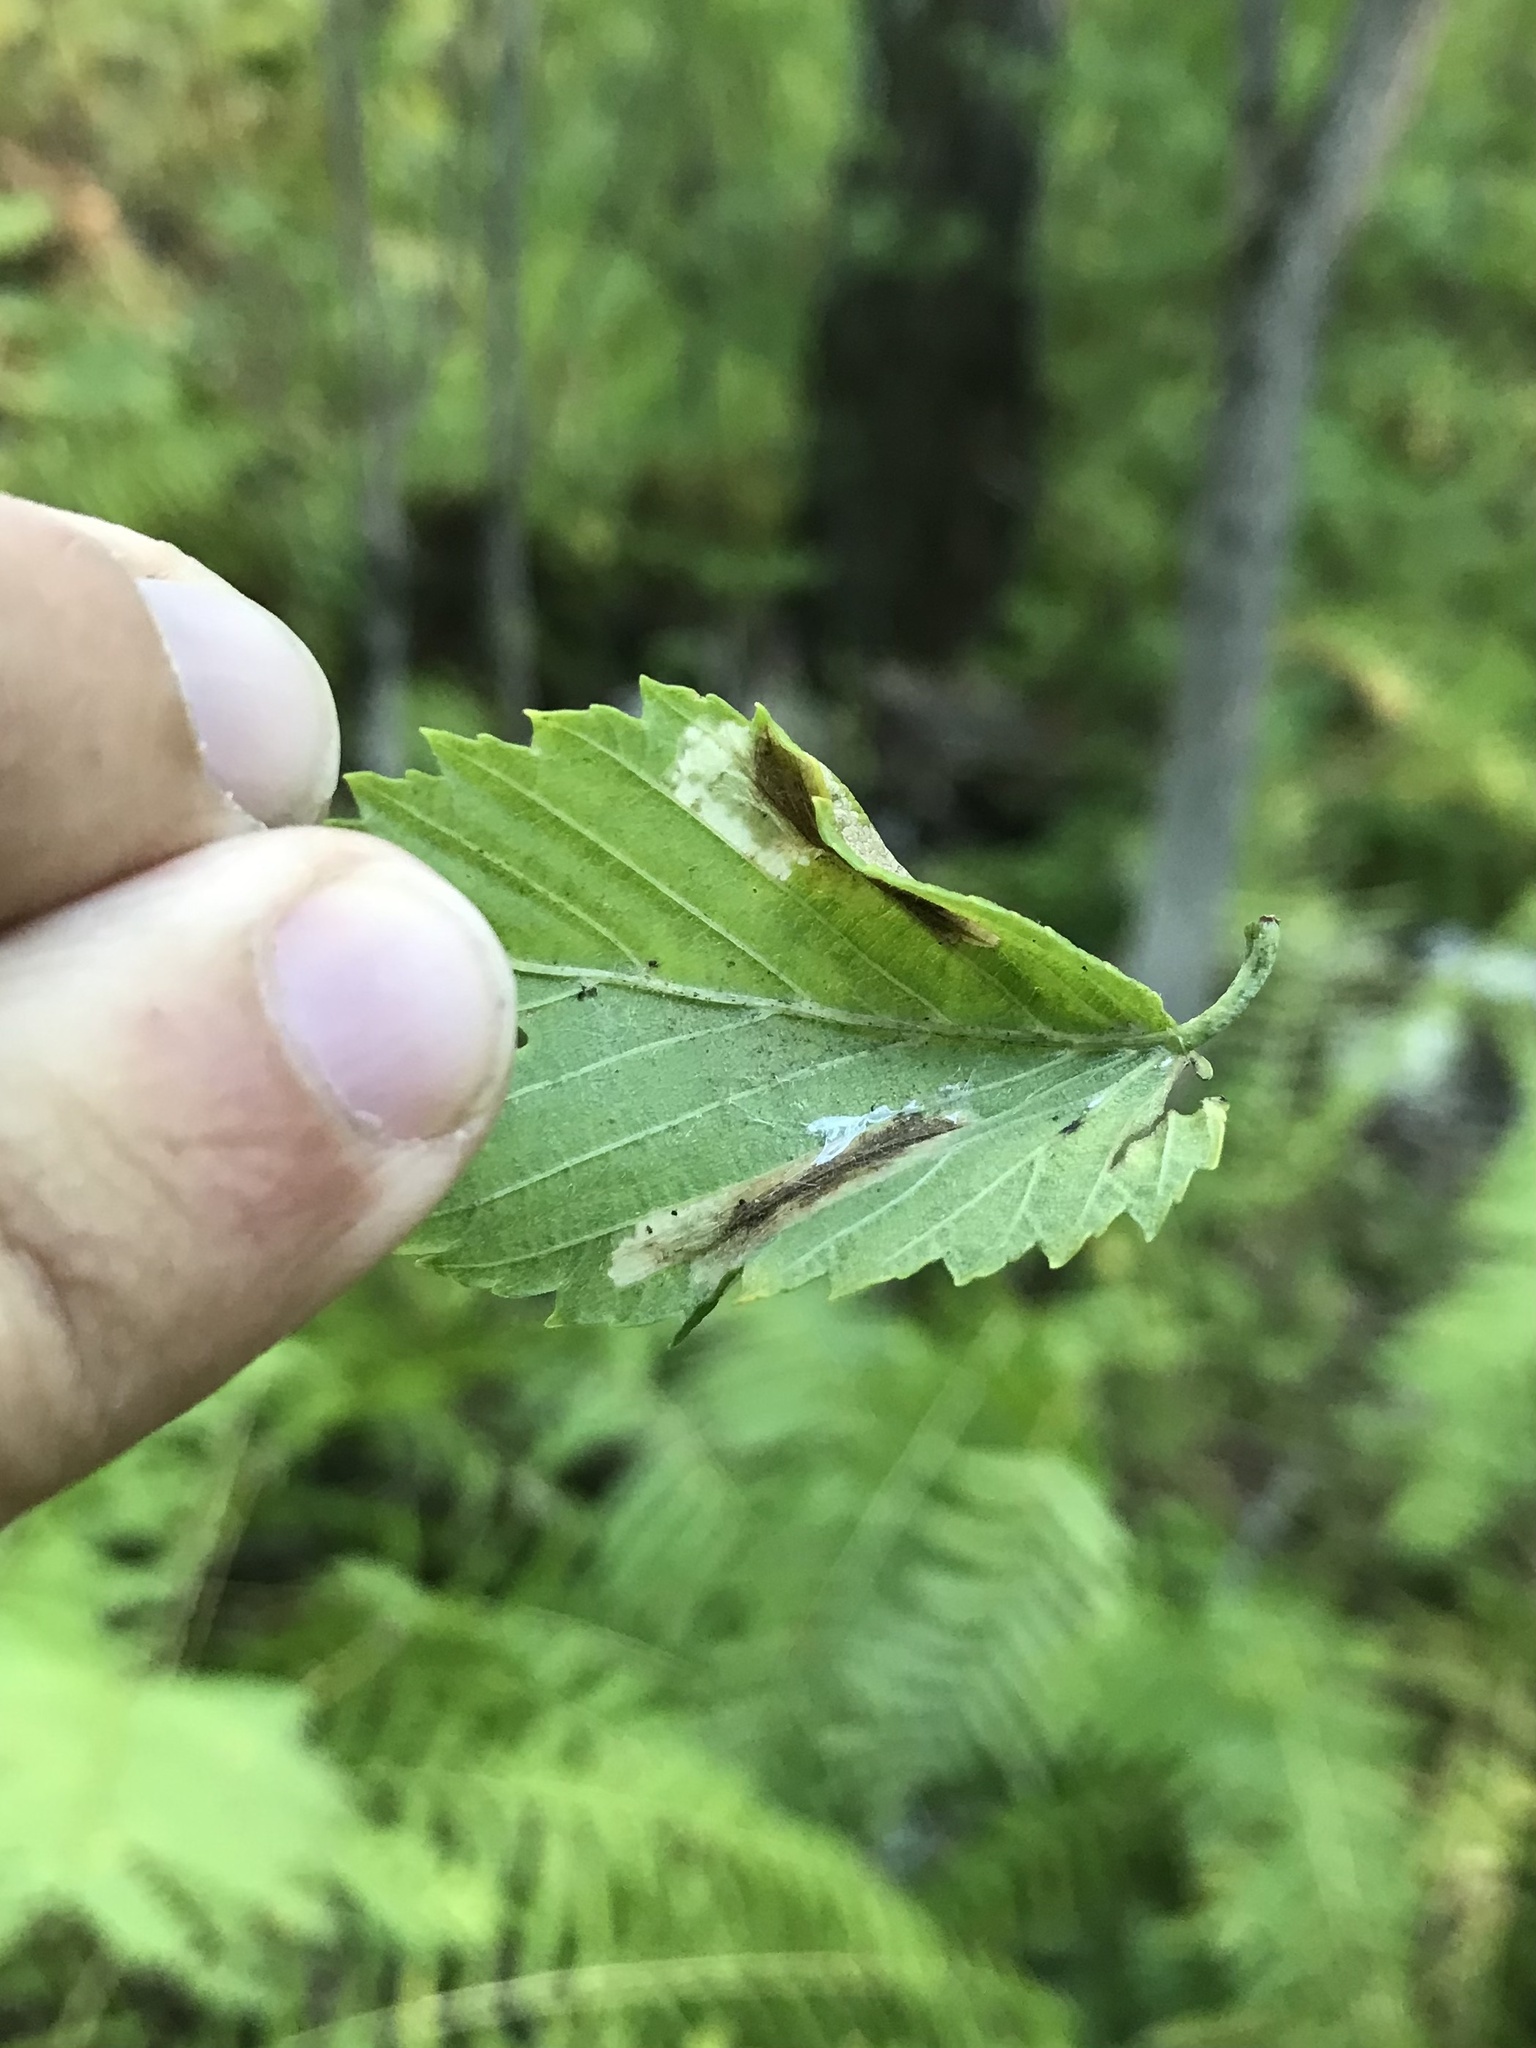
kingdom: Animalia
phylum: Arthropoda
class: Insecta
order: Lepidoptera
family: Gracillariidae
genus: Phyllonorycter
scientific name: Phyllonorycter argentinotella
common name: Golden elm leafminer
